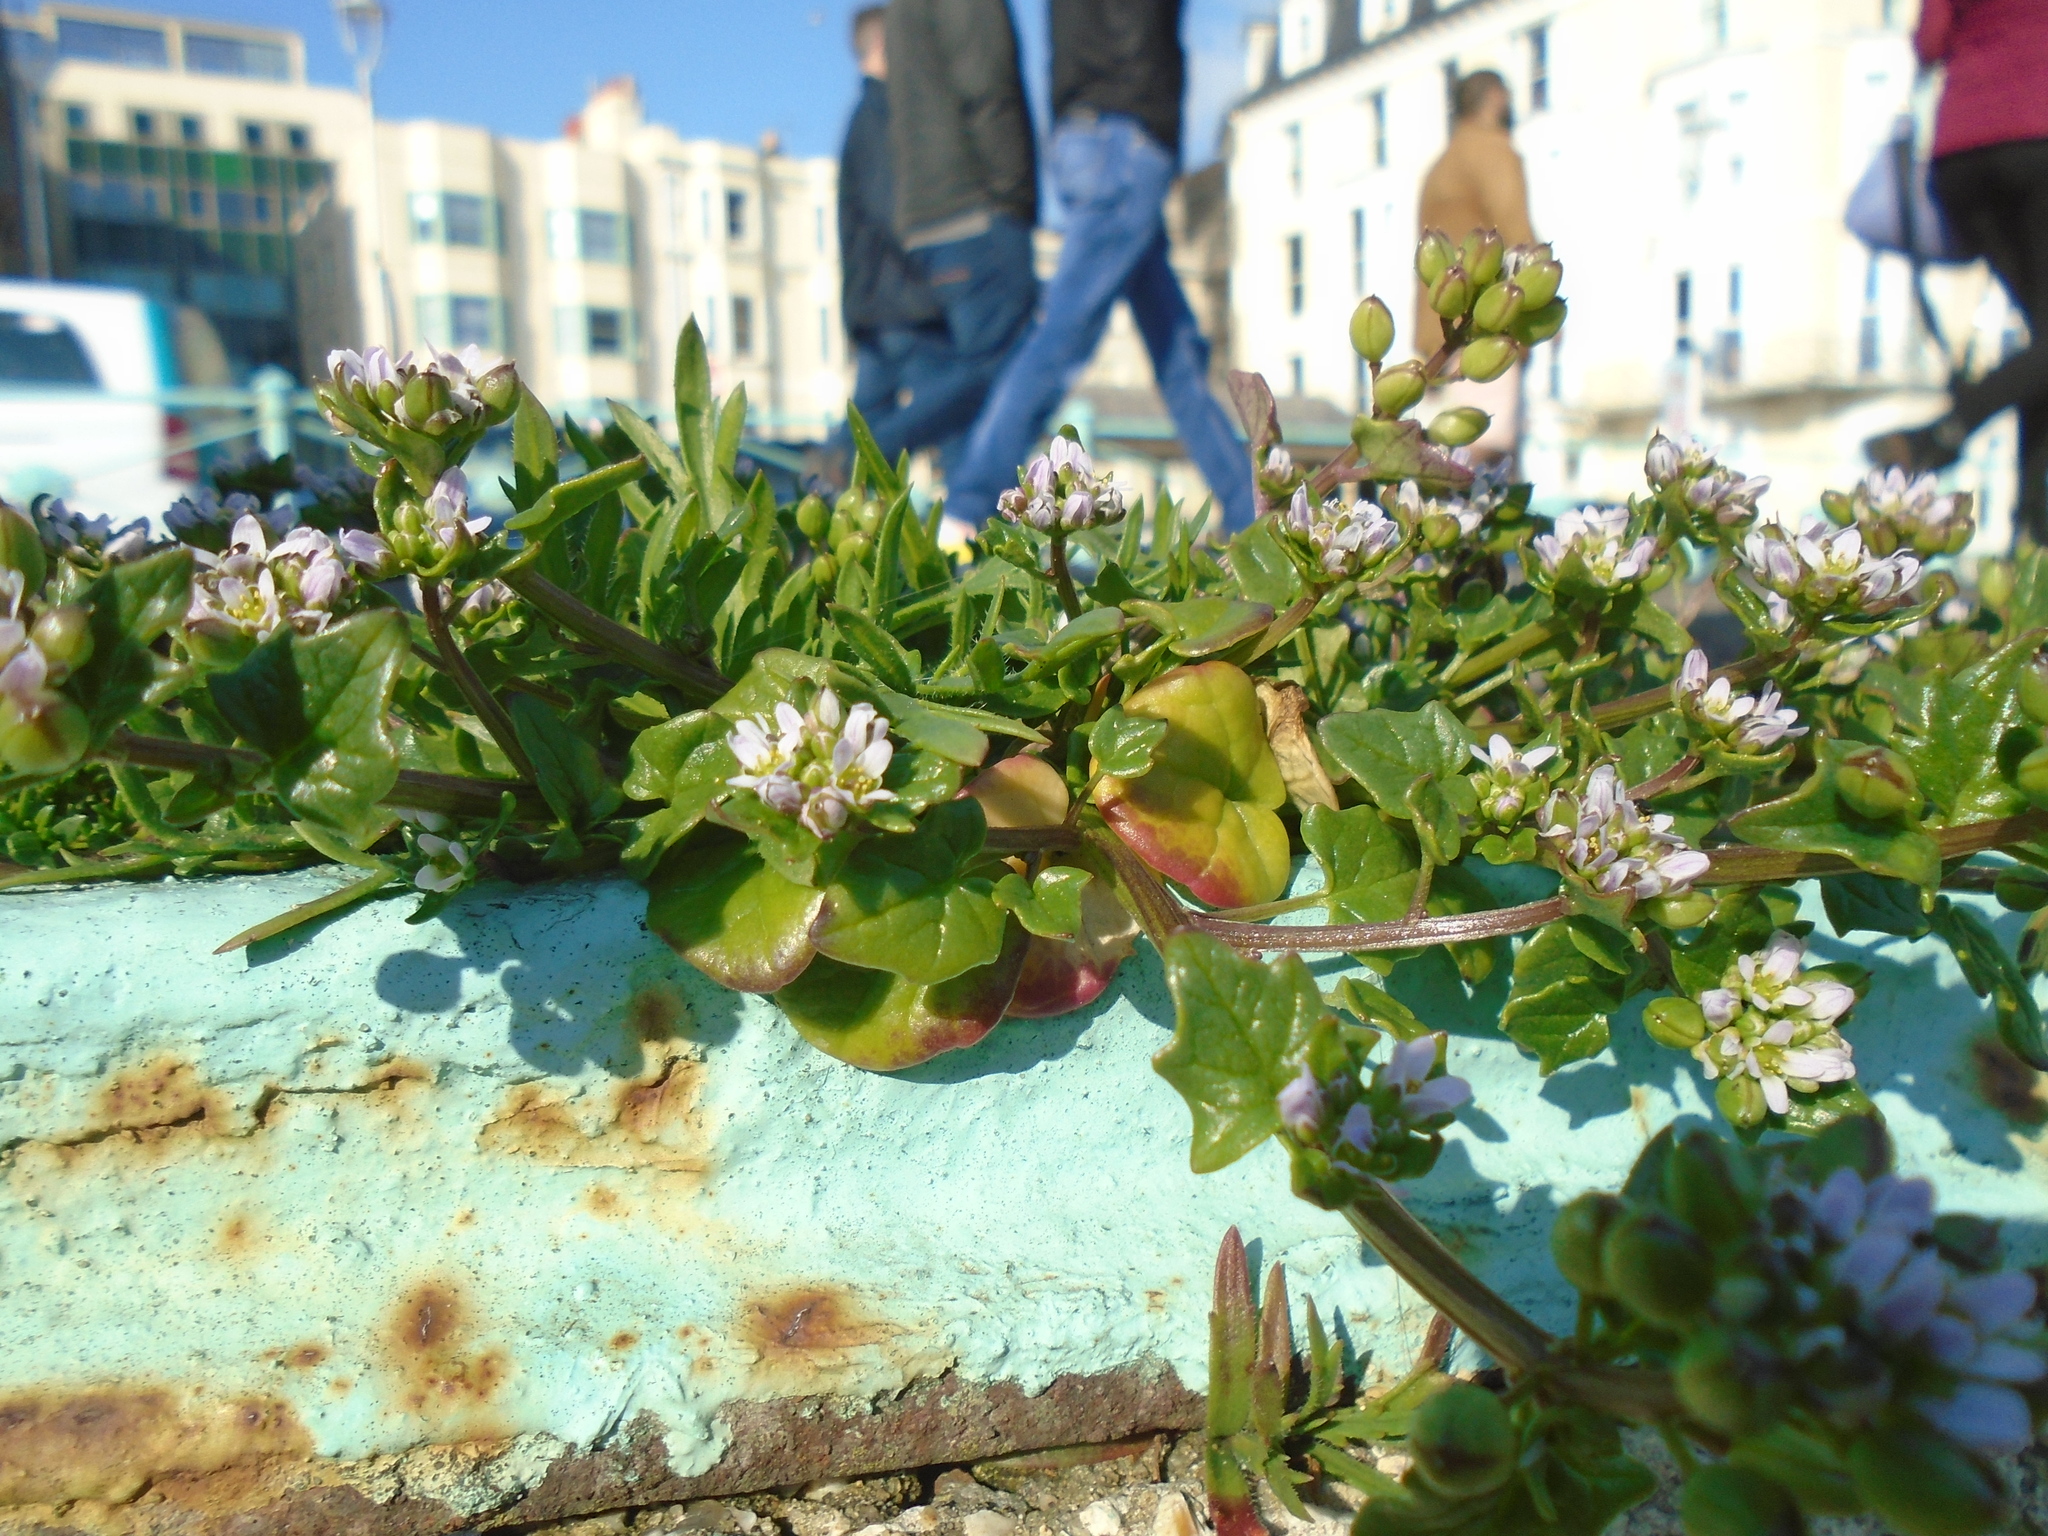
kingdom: Plantae
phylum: Tracheophyta
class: Magnoliopsida
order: Brassicales
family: Brassicaceae
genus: Cochlearia
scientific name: Cochlearia danica
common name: Early scurvygrass
